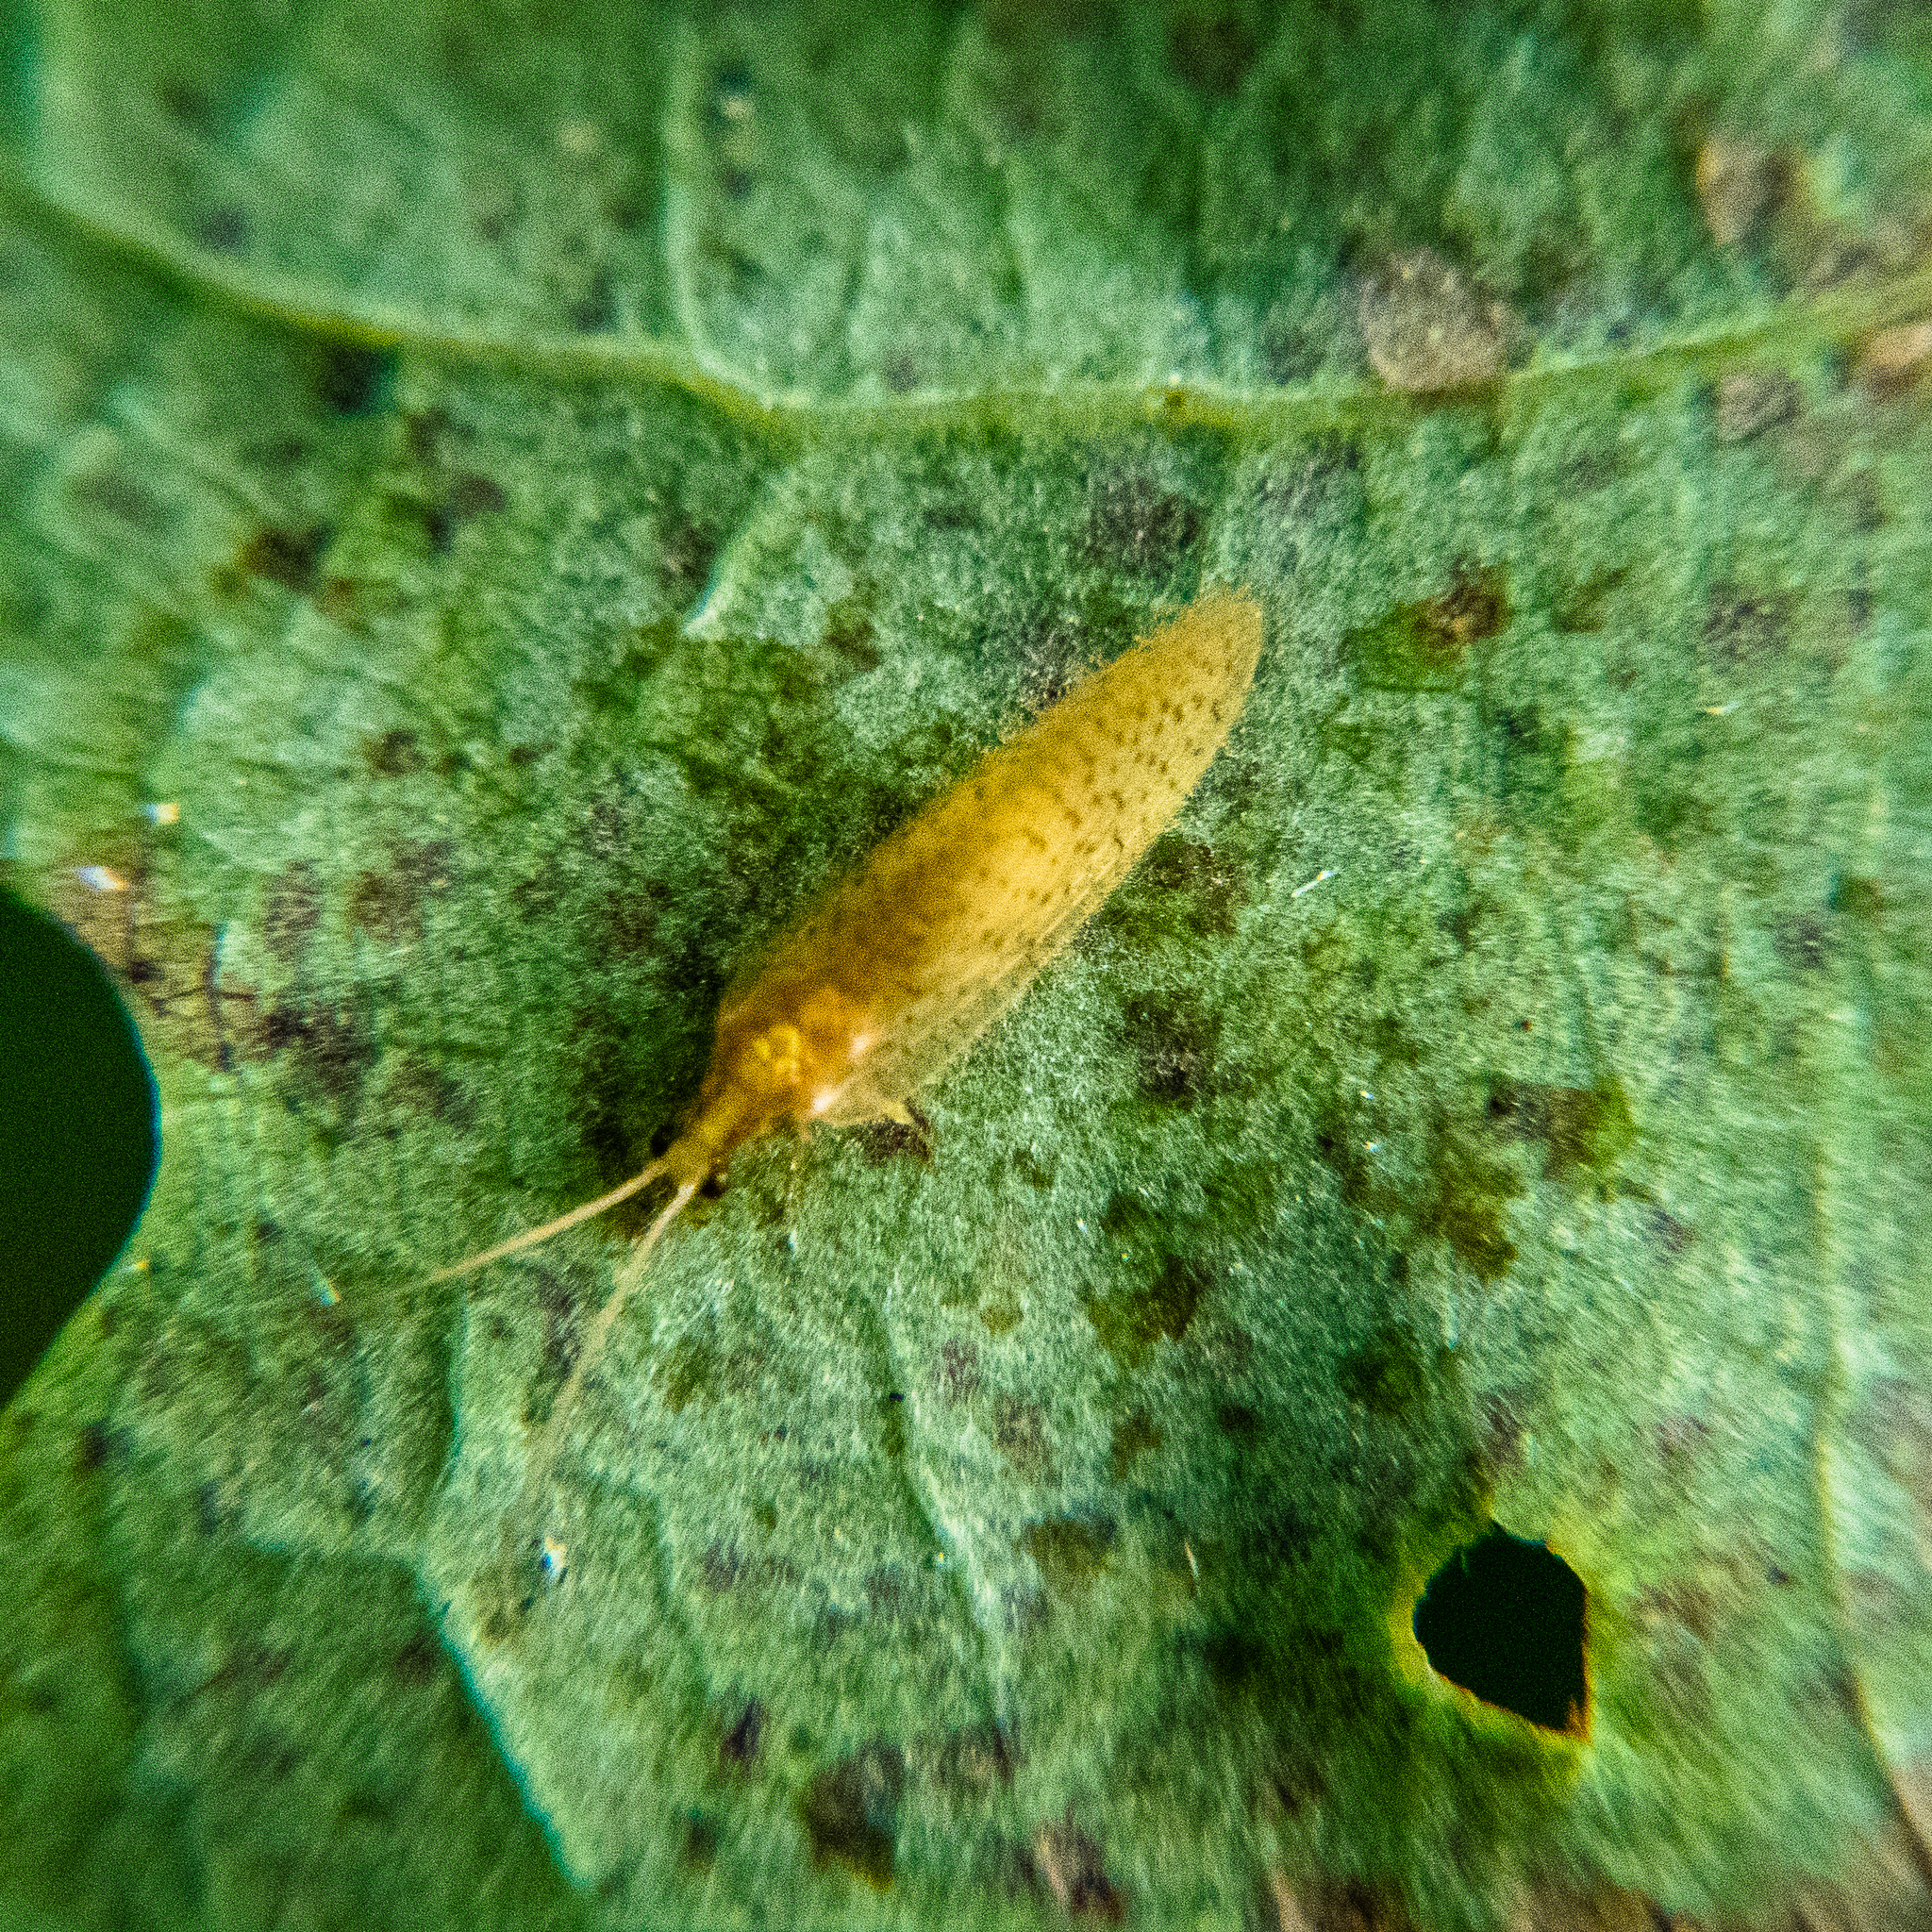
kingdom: Animalia
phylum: Arthropoda
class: Insecta
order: Neuroptera
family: Hemerobiidae
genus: Hemerobius
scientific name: Hemerobius micans
